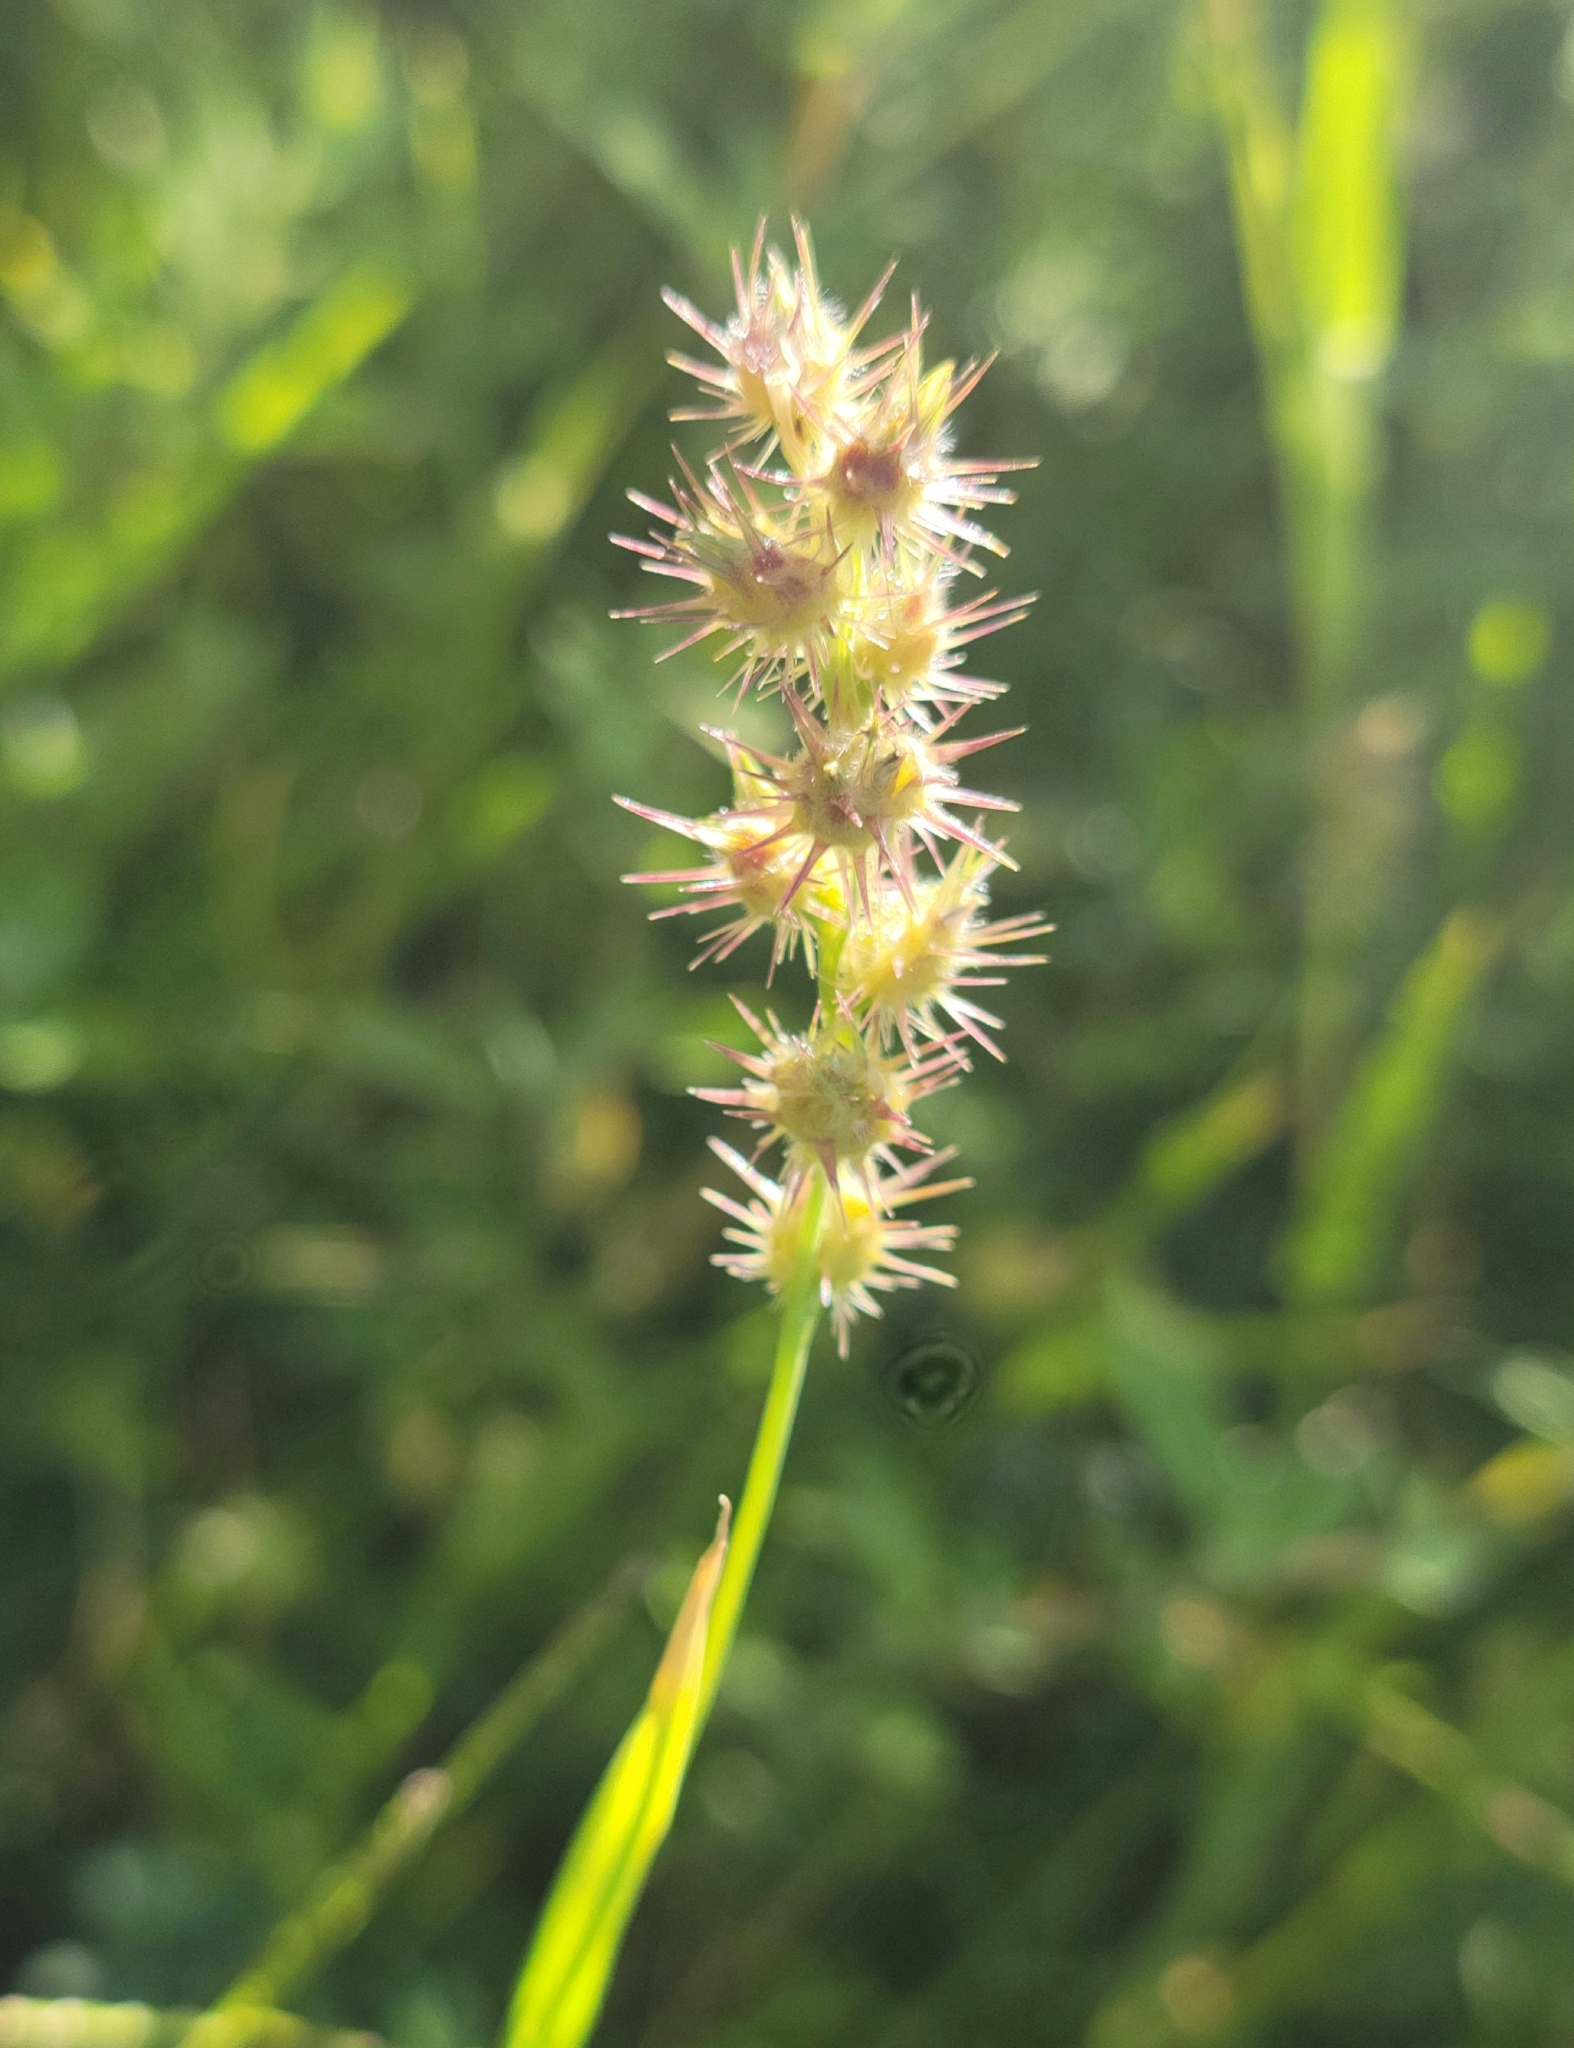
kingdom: Plantae
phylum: Tracheophyta
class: Liliopsida
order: Poales
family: Poaceae
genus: Cenchrus
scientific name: Cenchrus longispinus
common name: Mat sandbur
